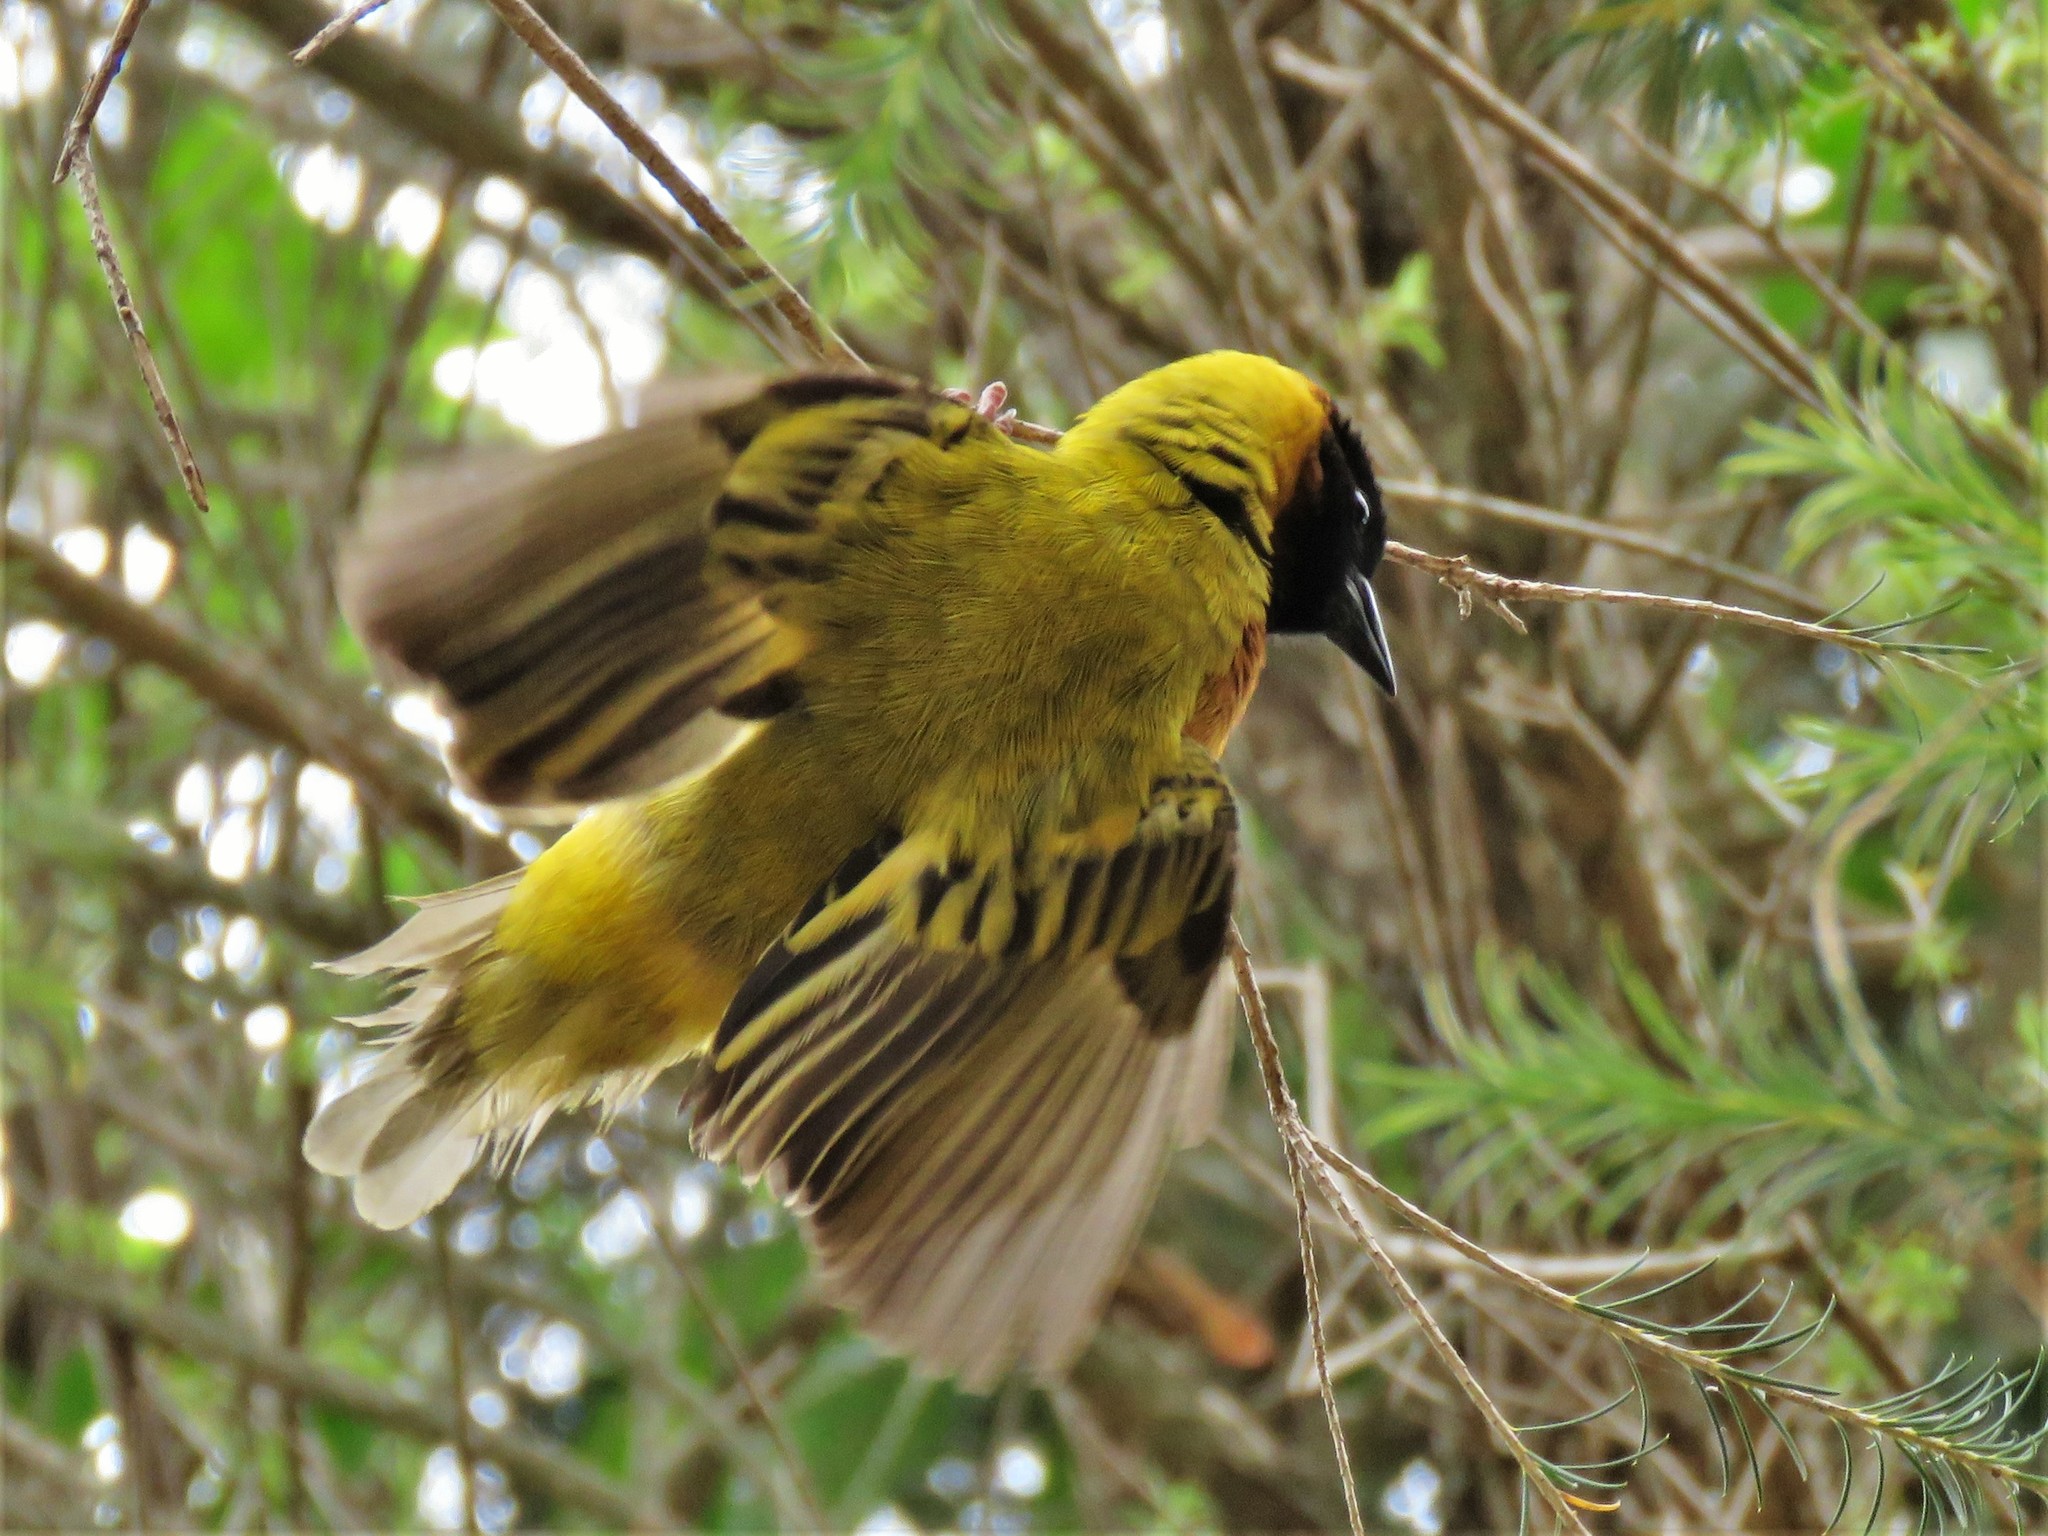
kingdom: Animalia
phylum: Chordata
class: Aves
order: Passeriformes
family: Ploceidae
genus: Ploceus
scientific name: Ploceus melanocephalus
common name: Black-headed weaver
